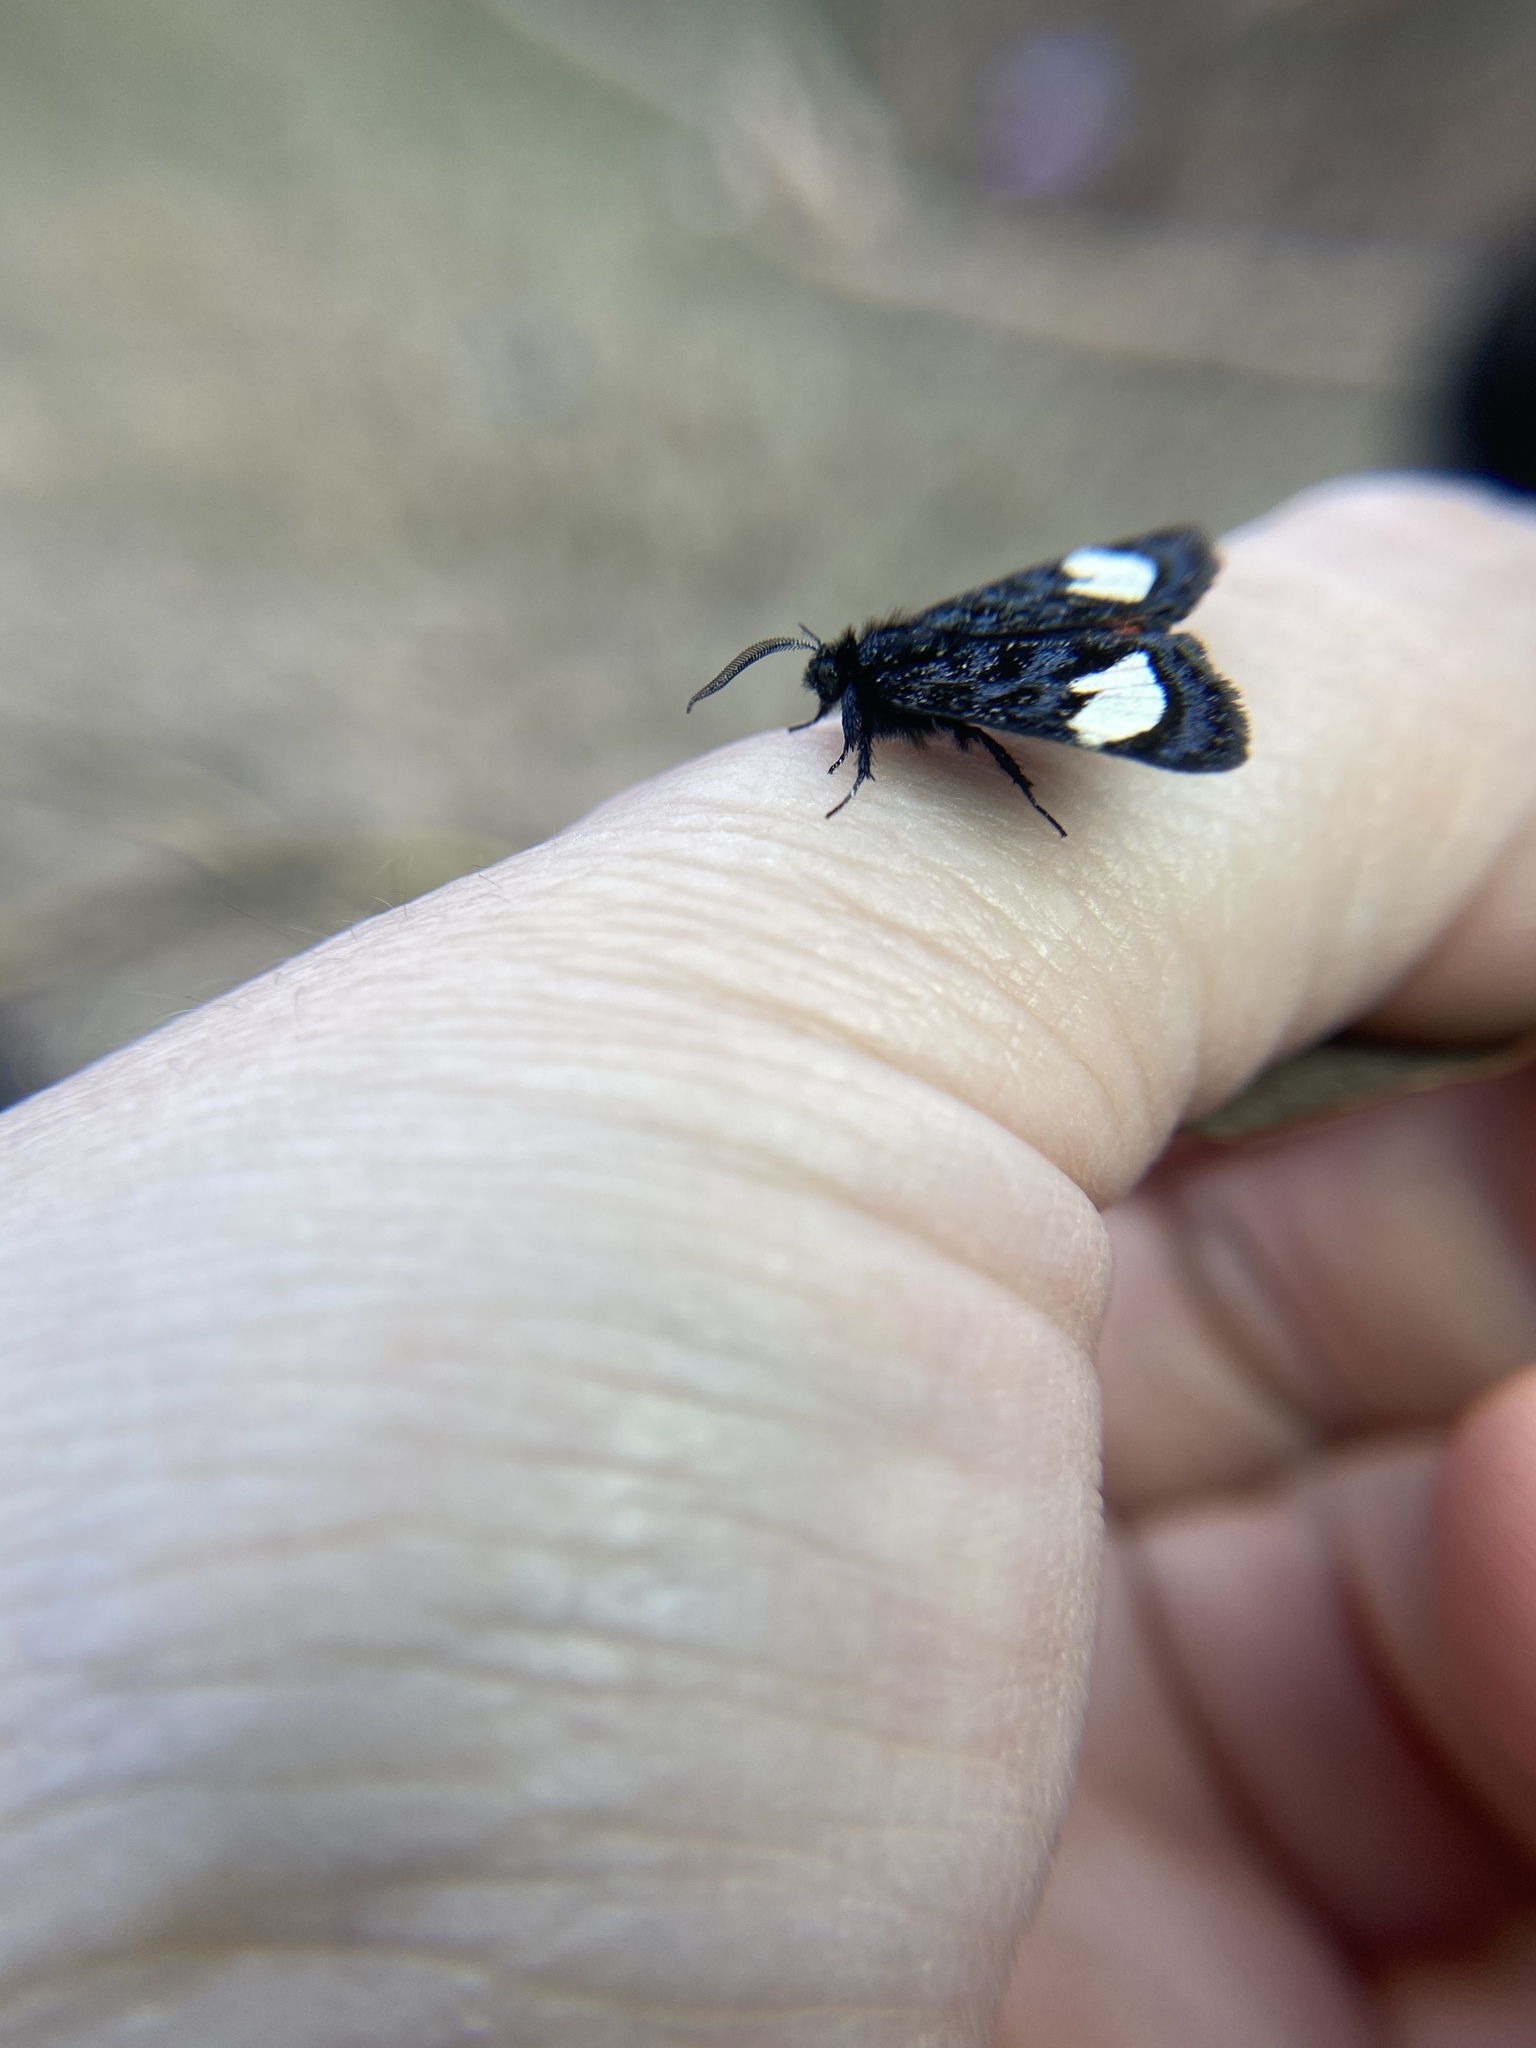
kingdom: Animalia
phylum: Arthropoda
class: Insecta
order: Lepidoptera
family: Noctuidae
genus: Psychomorpha
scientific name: Psychomorpha epimenis
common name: Grapevine epimenis moth
